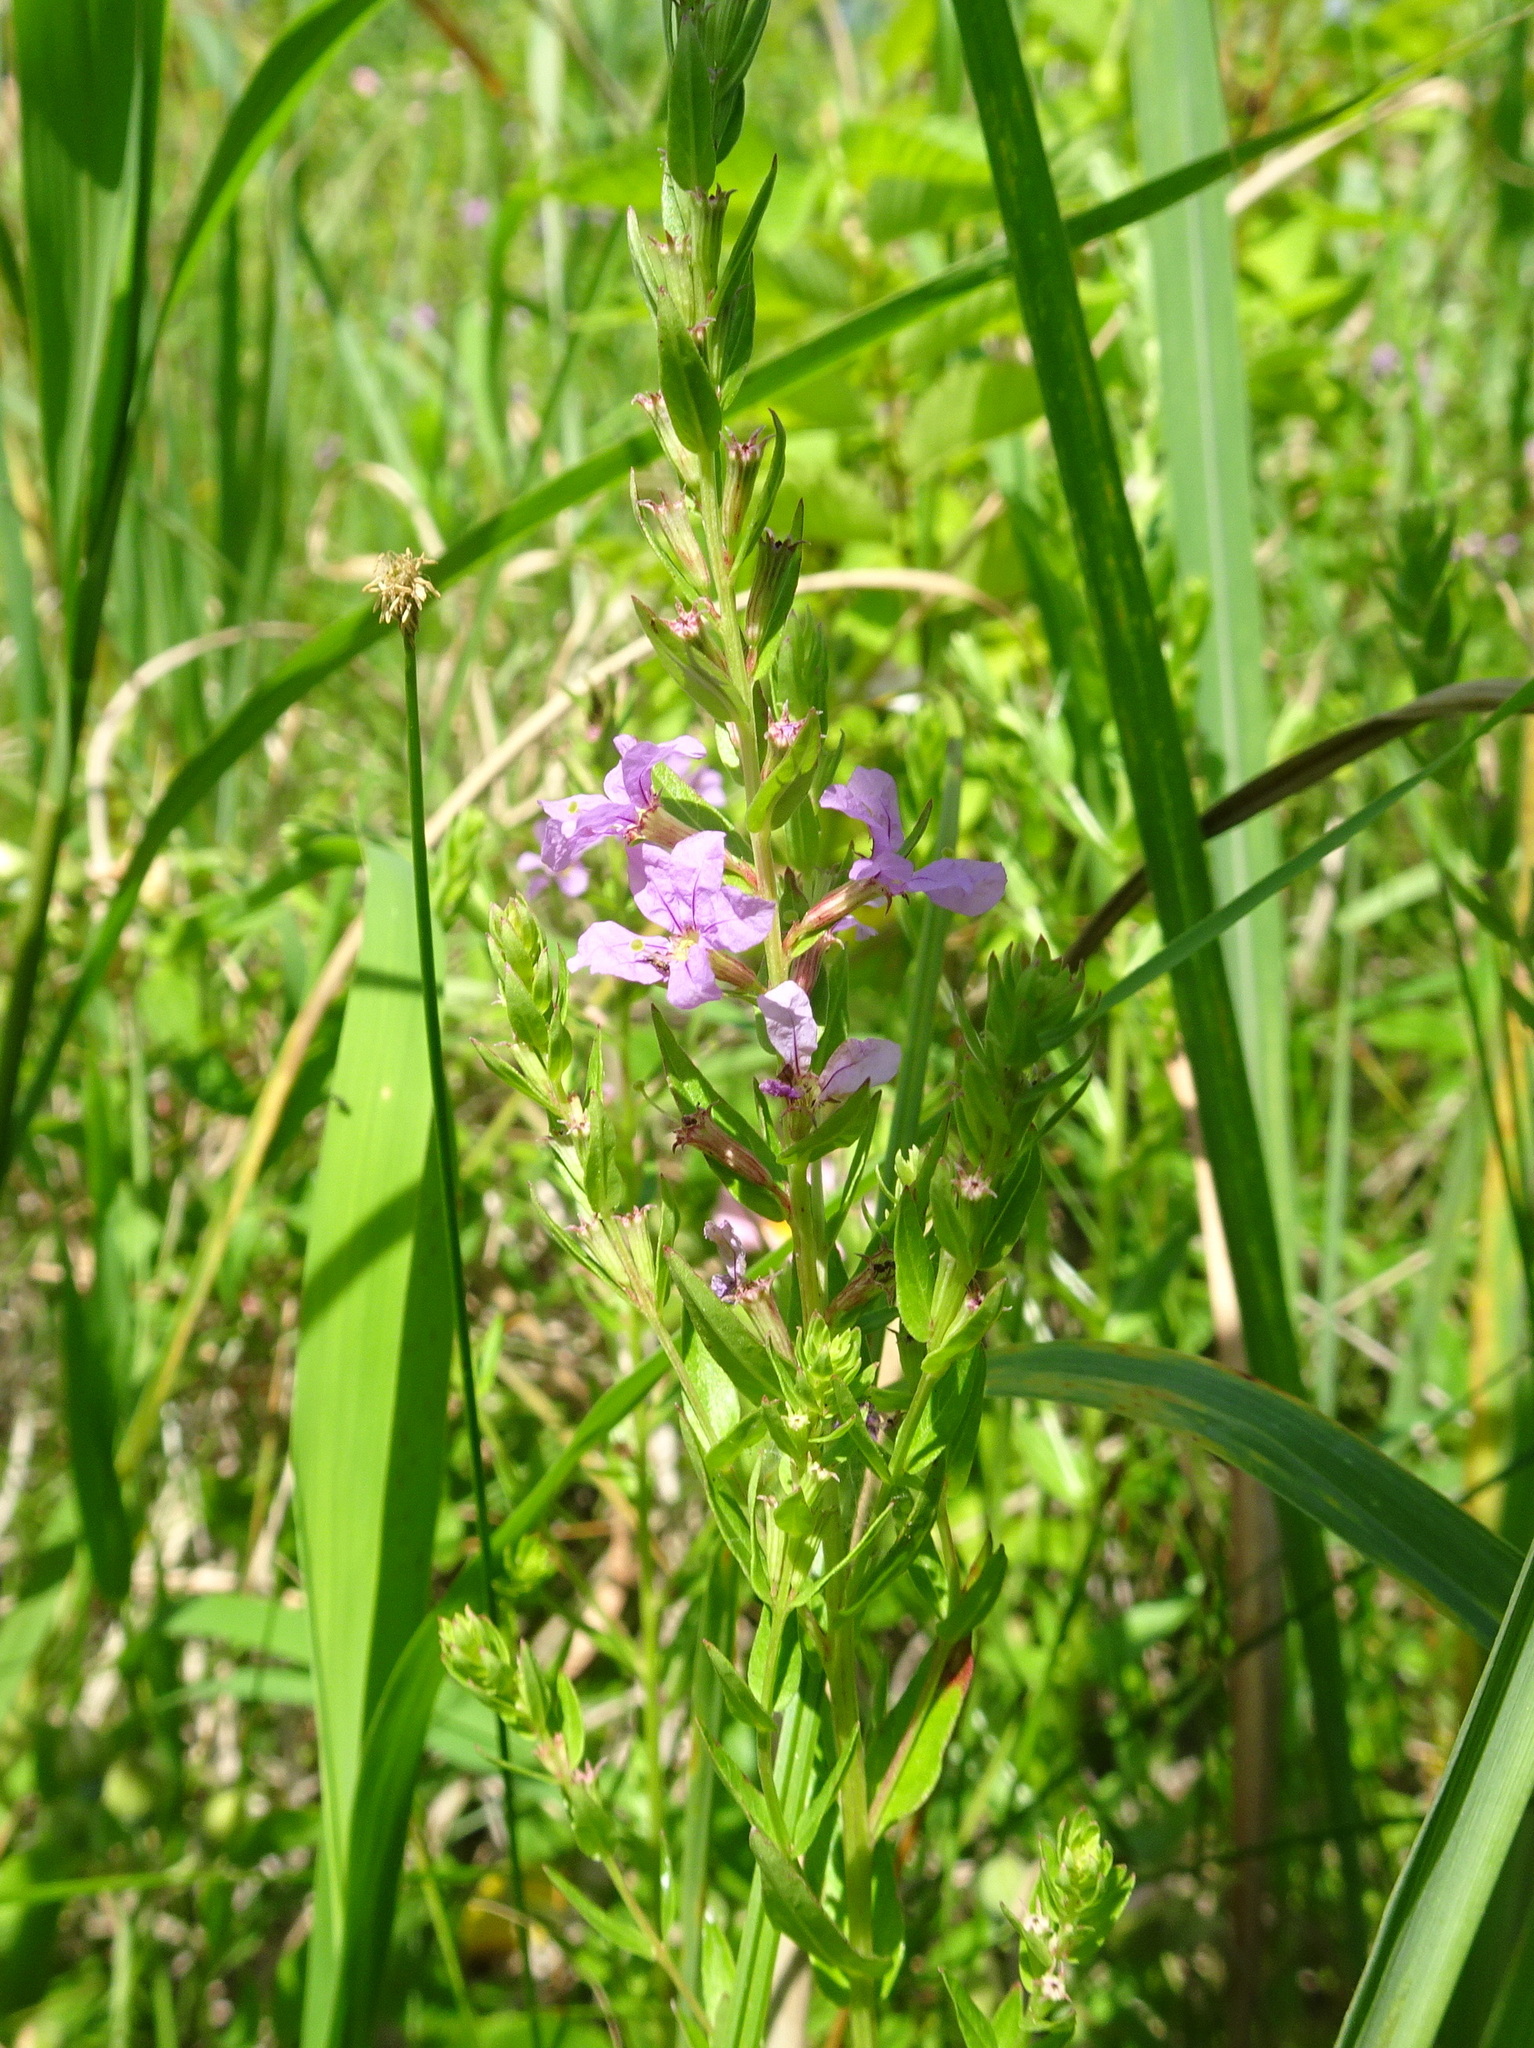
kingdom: Plantae
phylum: Tracheophyta
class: Magnoliopsida
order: Myrtales
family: Lythraceae
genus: Lythrum
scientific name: Lythrum alatum
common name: Winged loosestrife
